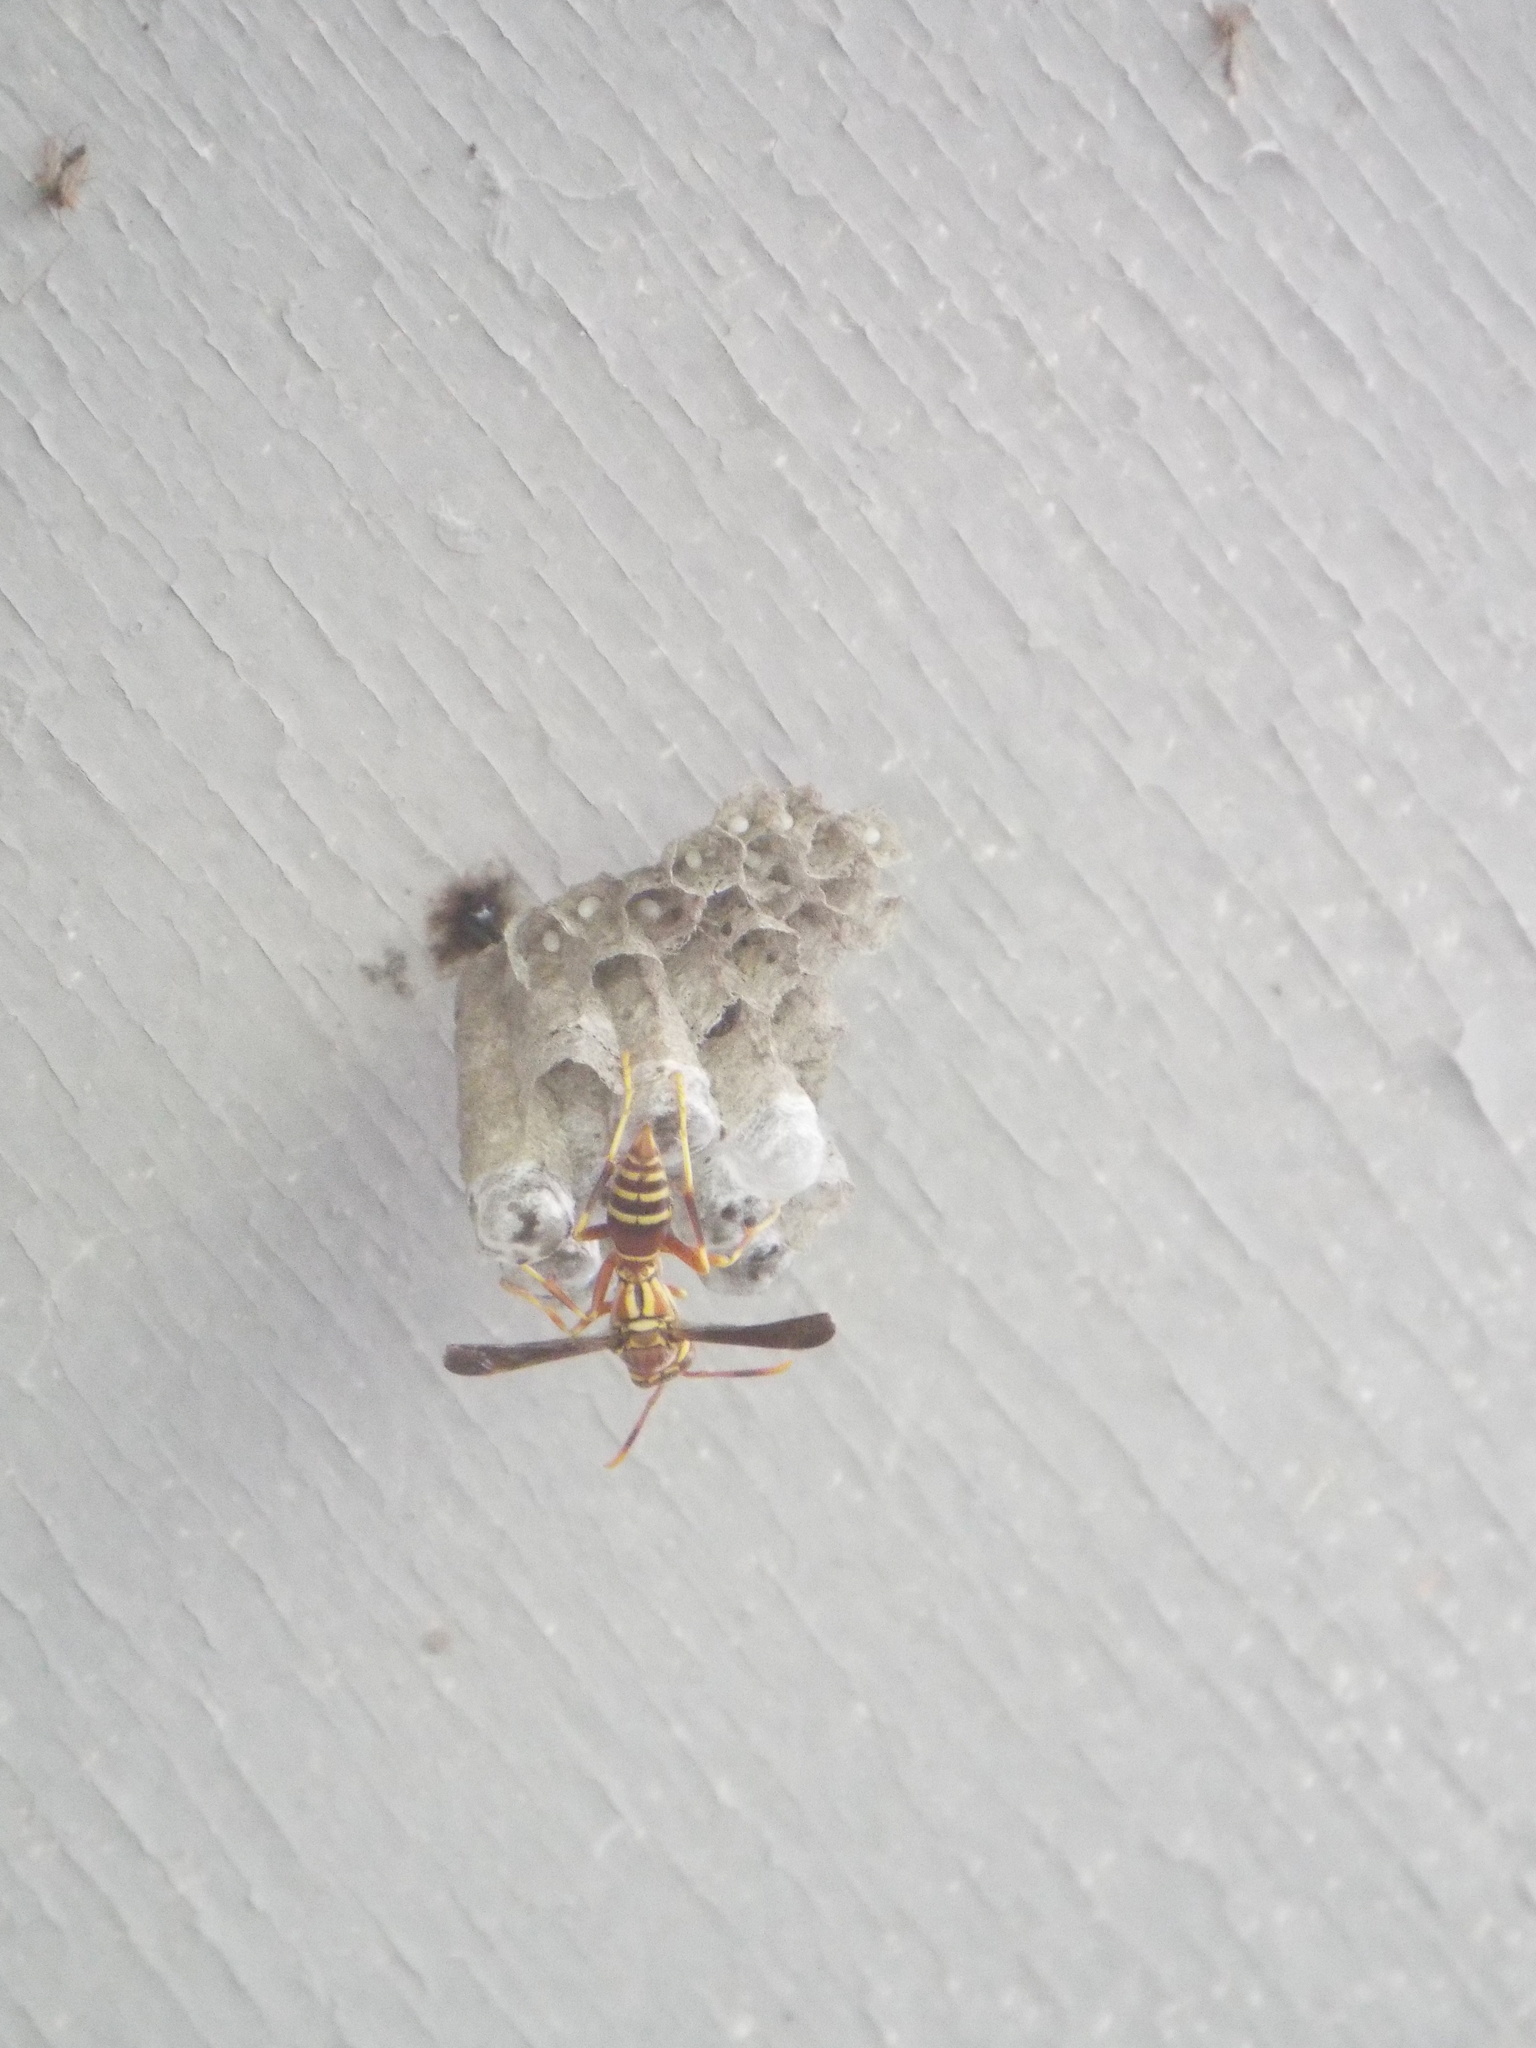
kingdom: Animalia
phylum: Arthropoda
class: Insecta
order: Hymenoptera
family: Eumenidae
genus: Polistes
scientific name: Polistes exclamans
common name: Paper wasp
